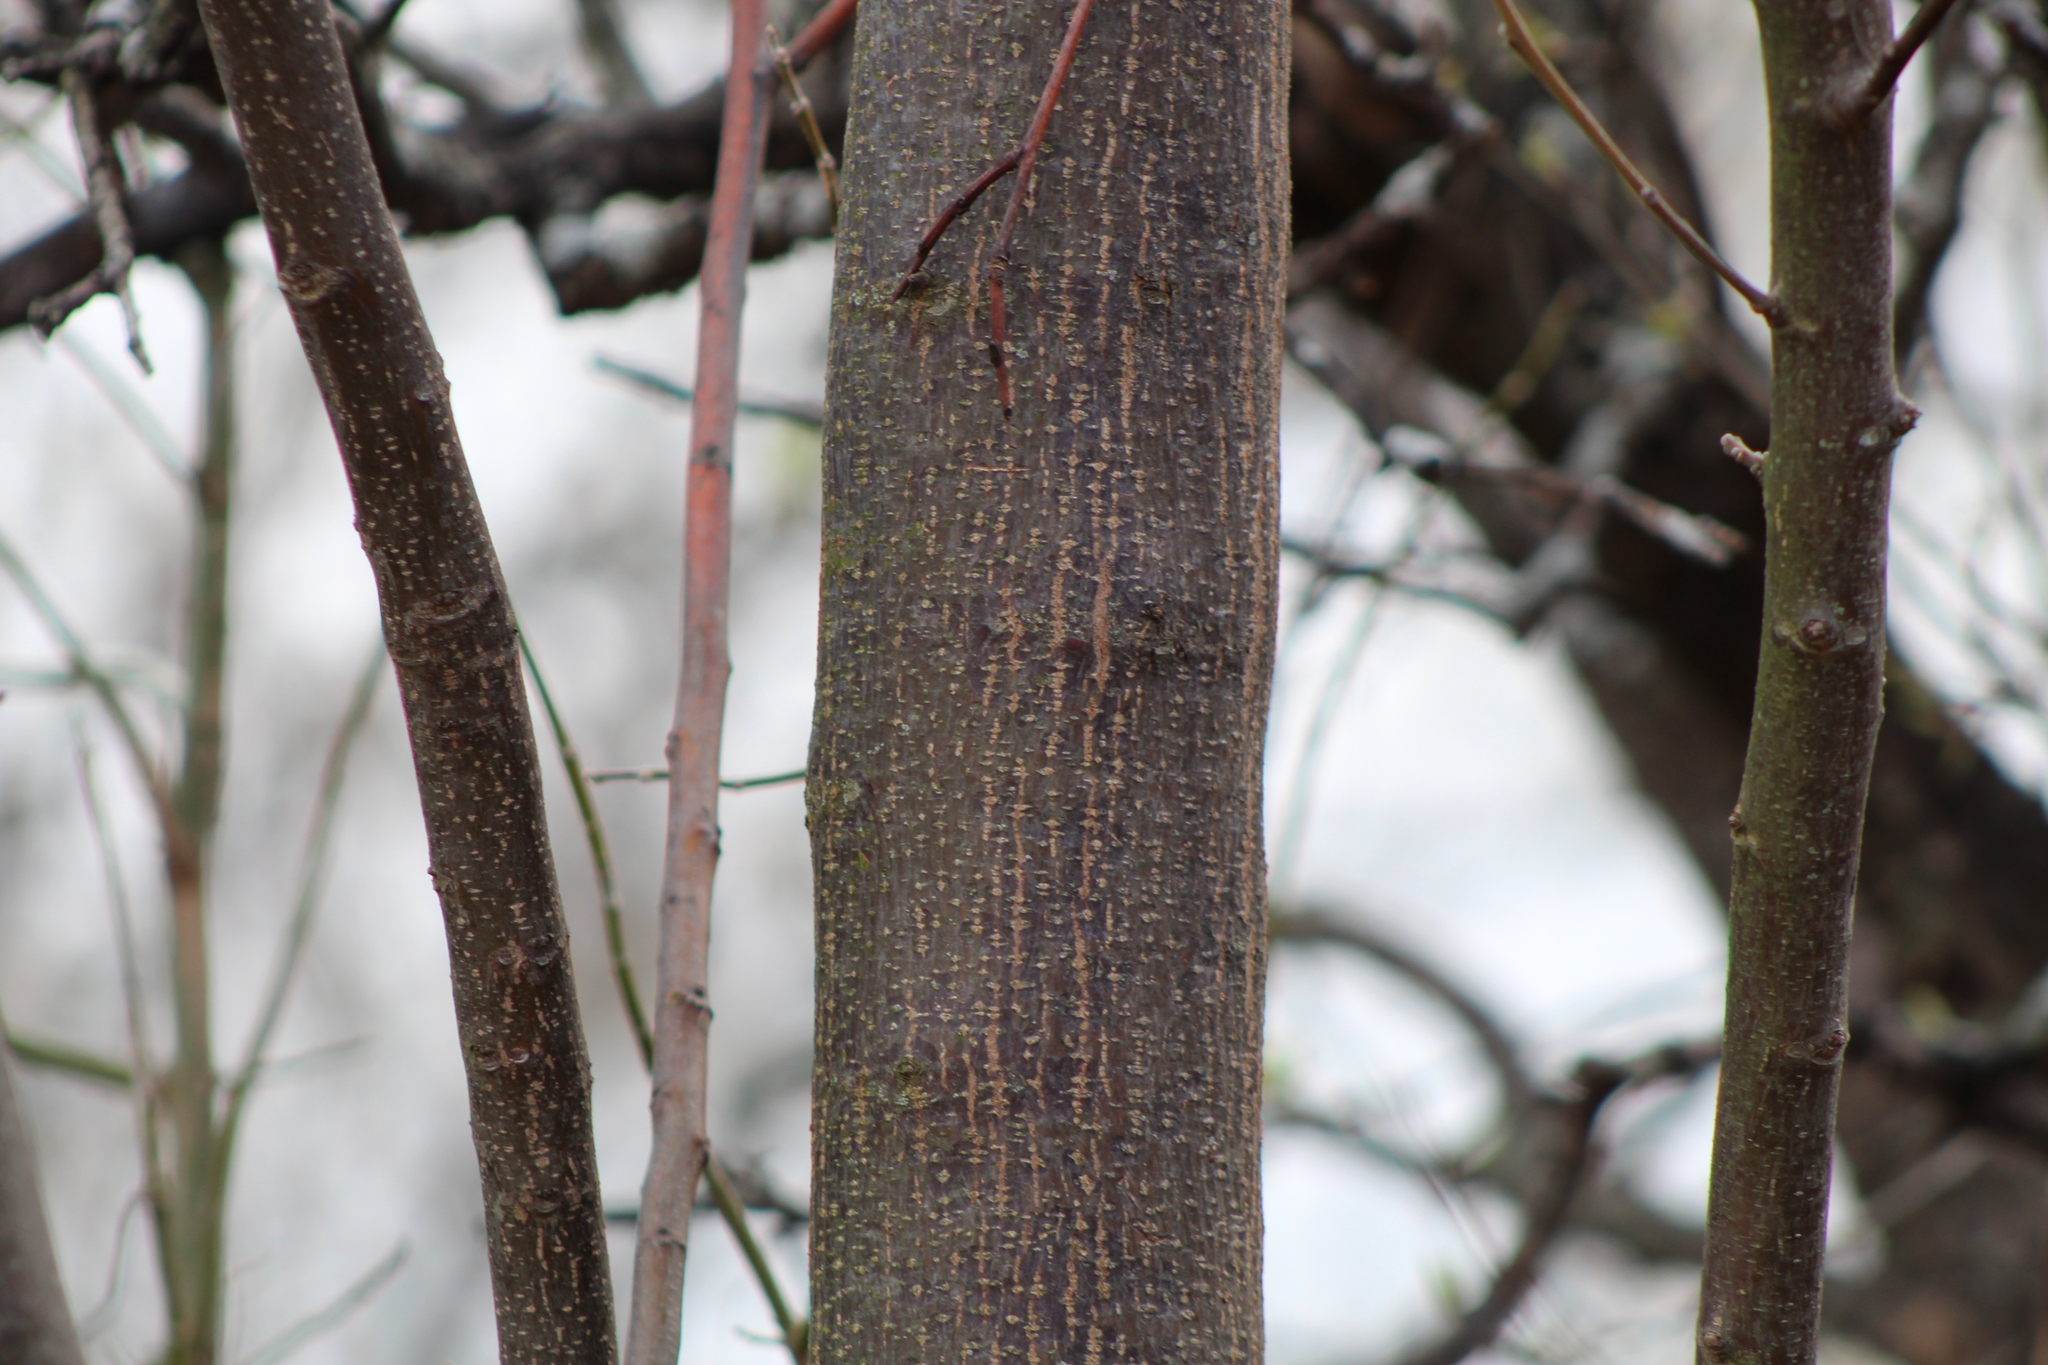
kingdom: Plantae
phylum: Tracheophyta
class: Magnoliopsida
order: Sapindales
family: Meliaceae
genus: Melia
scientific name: Melia azedarach
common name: Chinaberrytree
